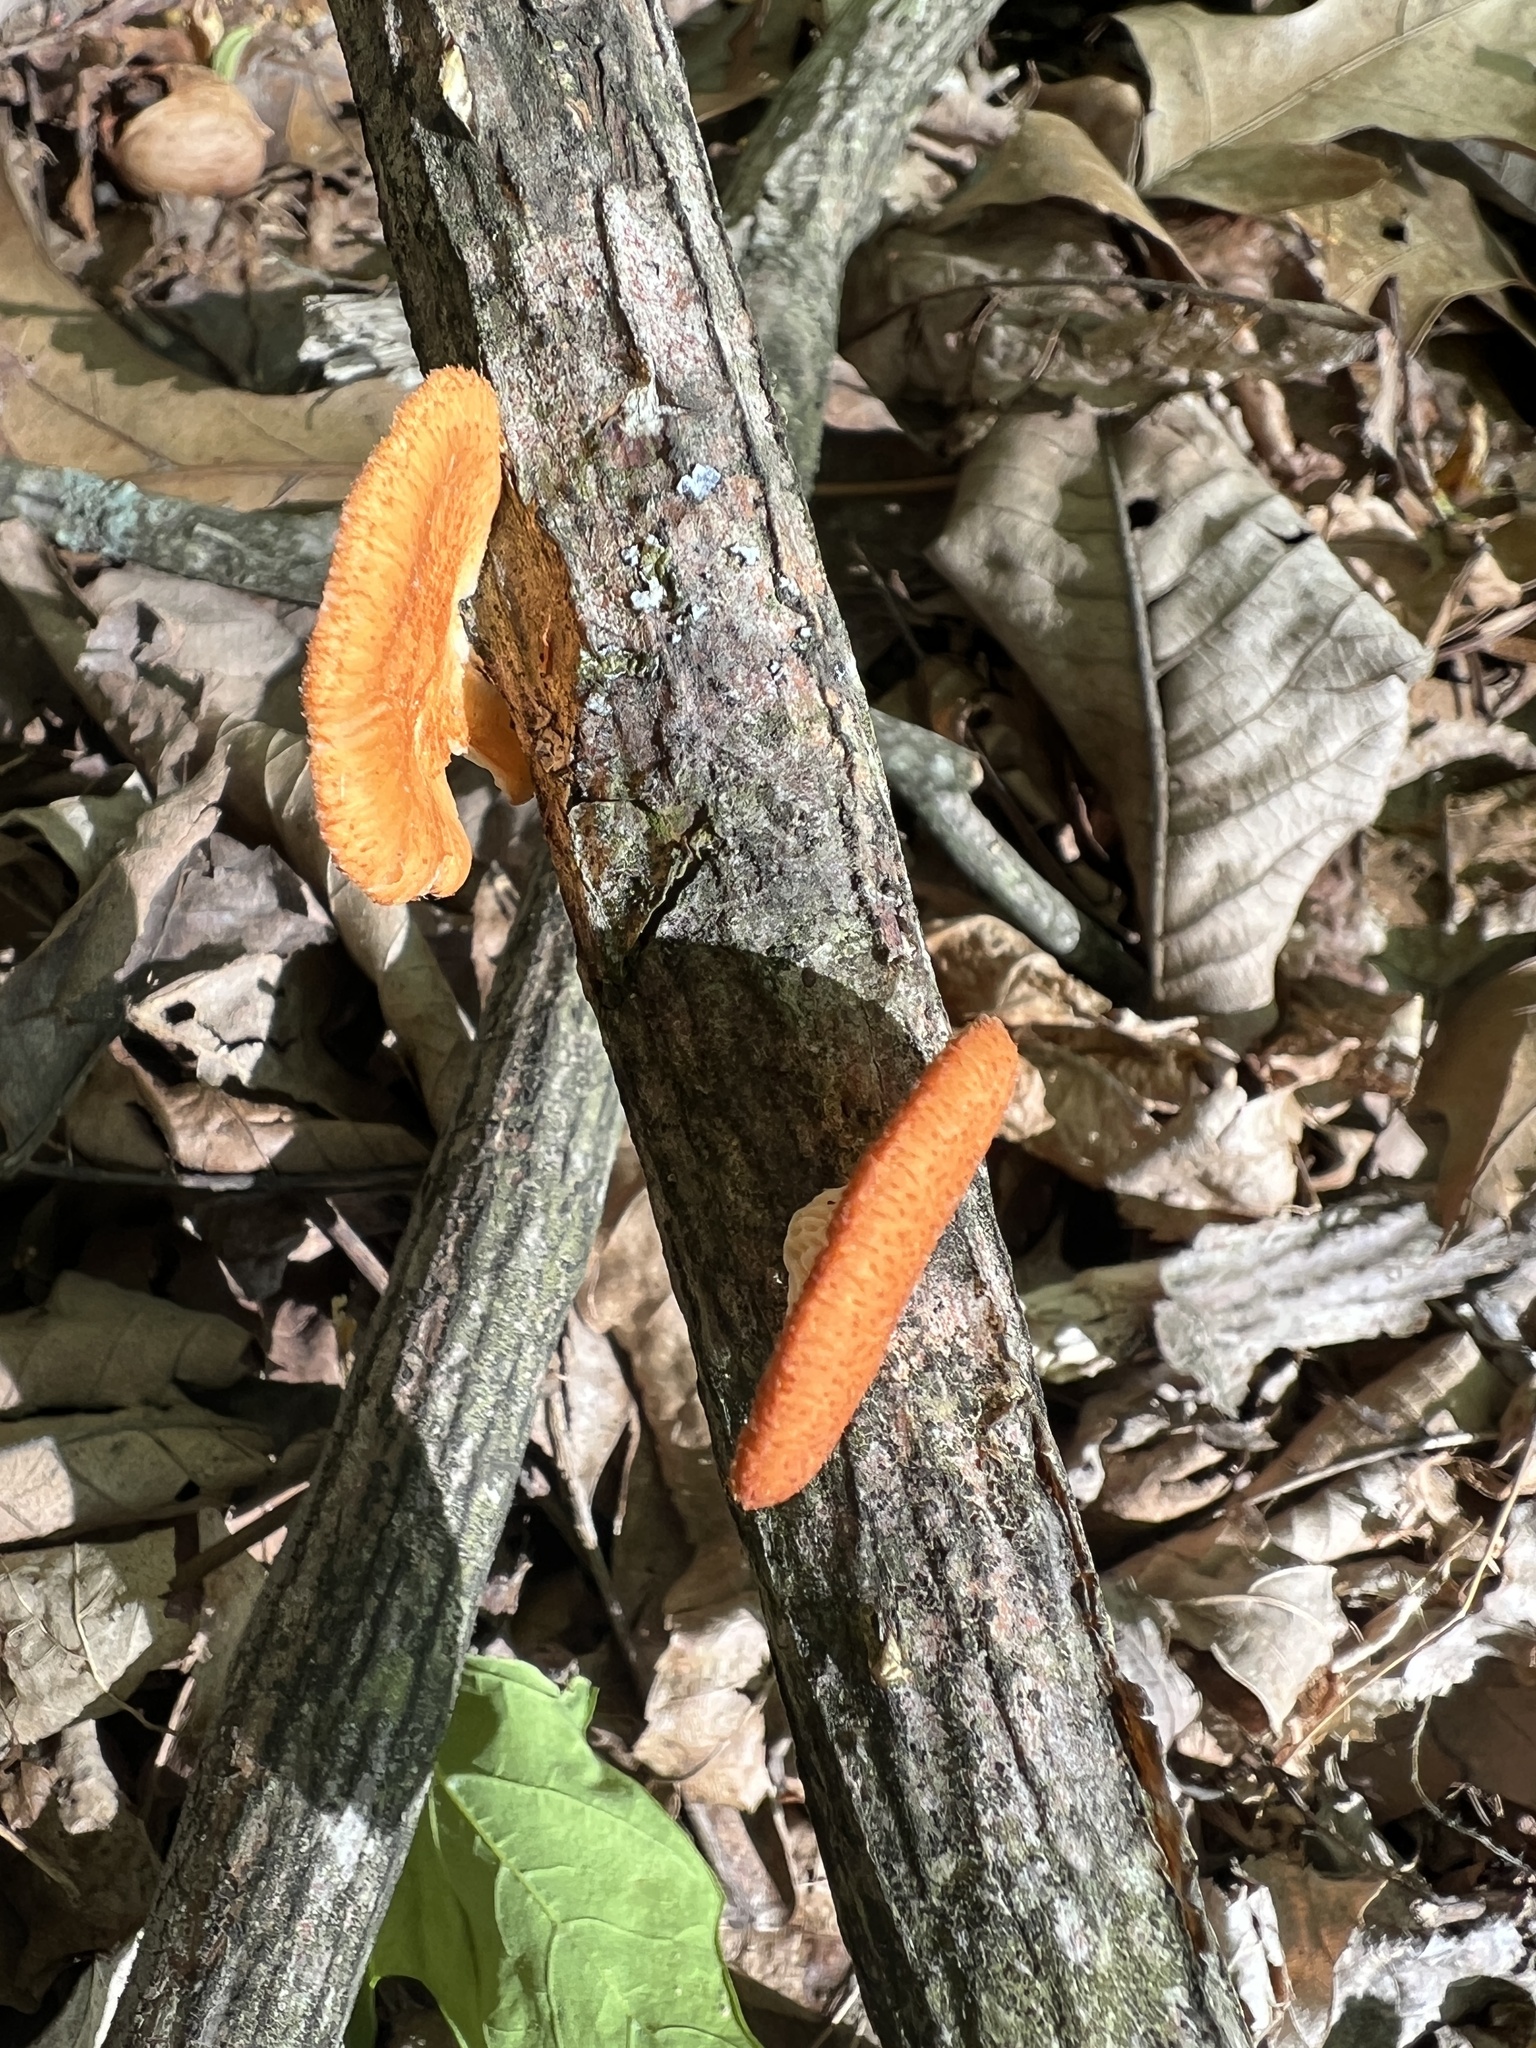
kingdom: Fungi
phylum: Basidiomycota
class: Agaricomycetes
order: Polyporales
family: Polyporaceae
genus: Neofavolus
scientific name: Neofavolus alveolaris
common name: Hexagonal-pored polypore
